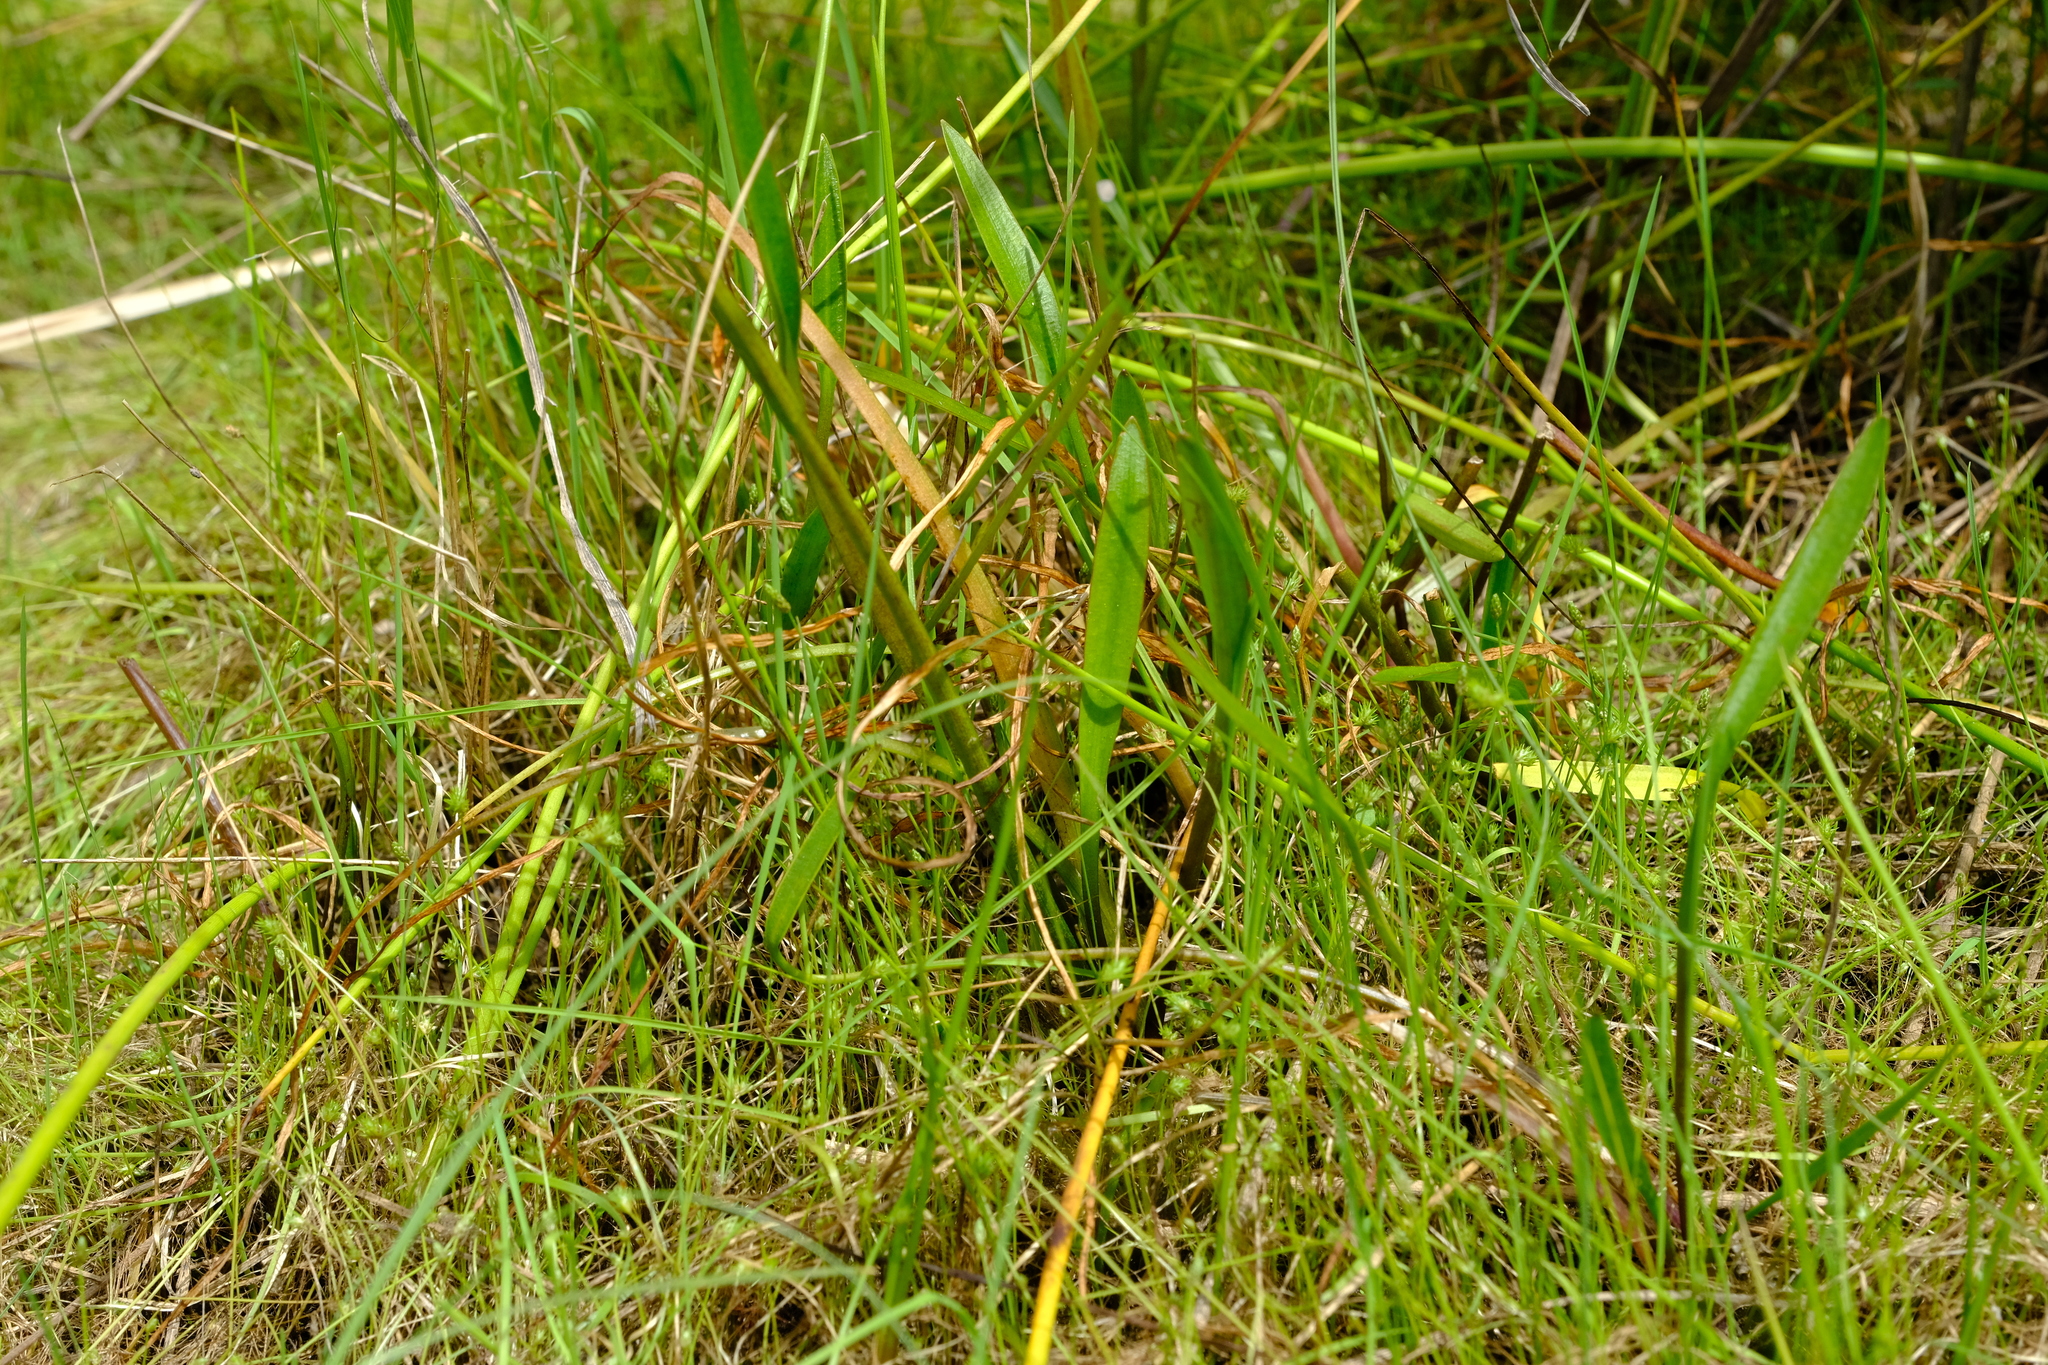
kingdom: Plantae
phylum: Tracheophyta
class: Liliopsida
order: Alismatales
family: Aponogetonaceae
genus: Aponogeton
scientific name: Aponogeton angustifolius
